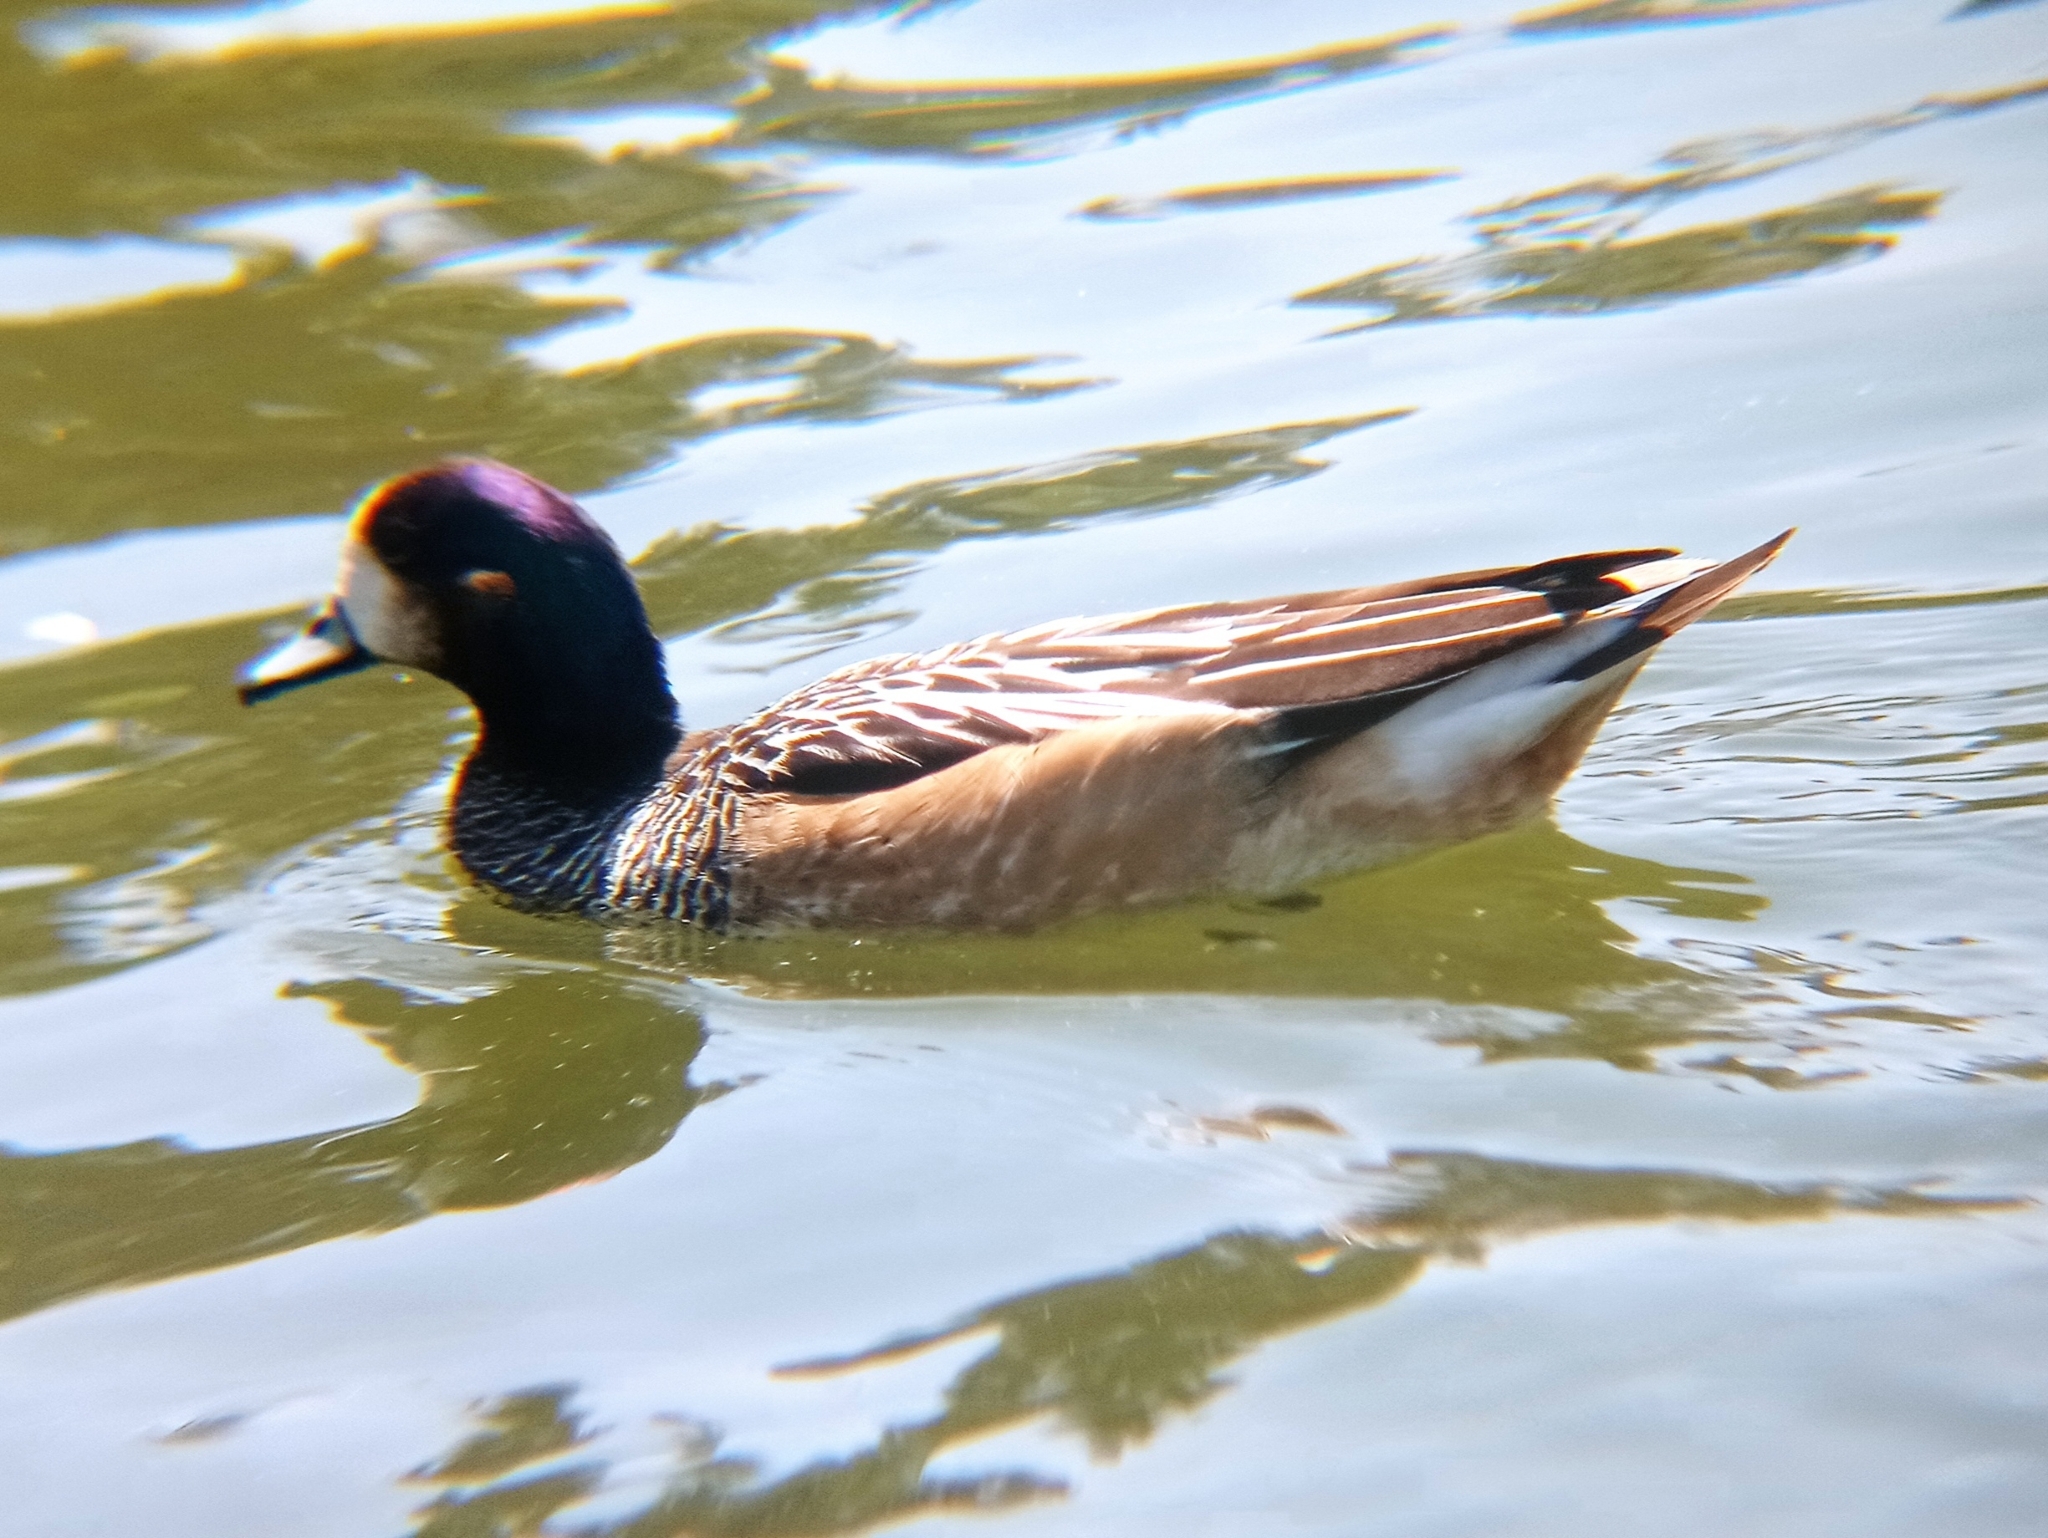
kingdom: Animalia
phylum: Chordata
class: Aves
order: Anseriformes
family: Anatidae
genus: Mareca
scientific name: Mareca sibilatrix
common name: Chiloe wigeon
